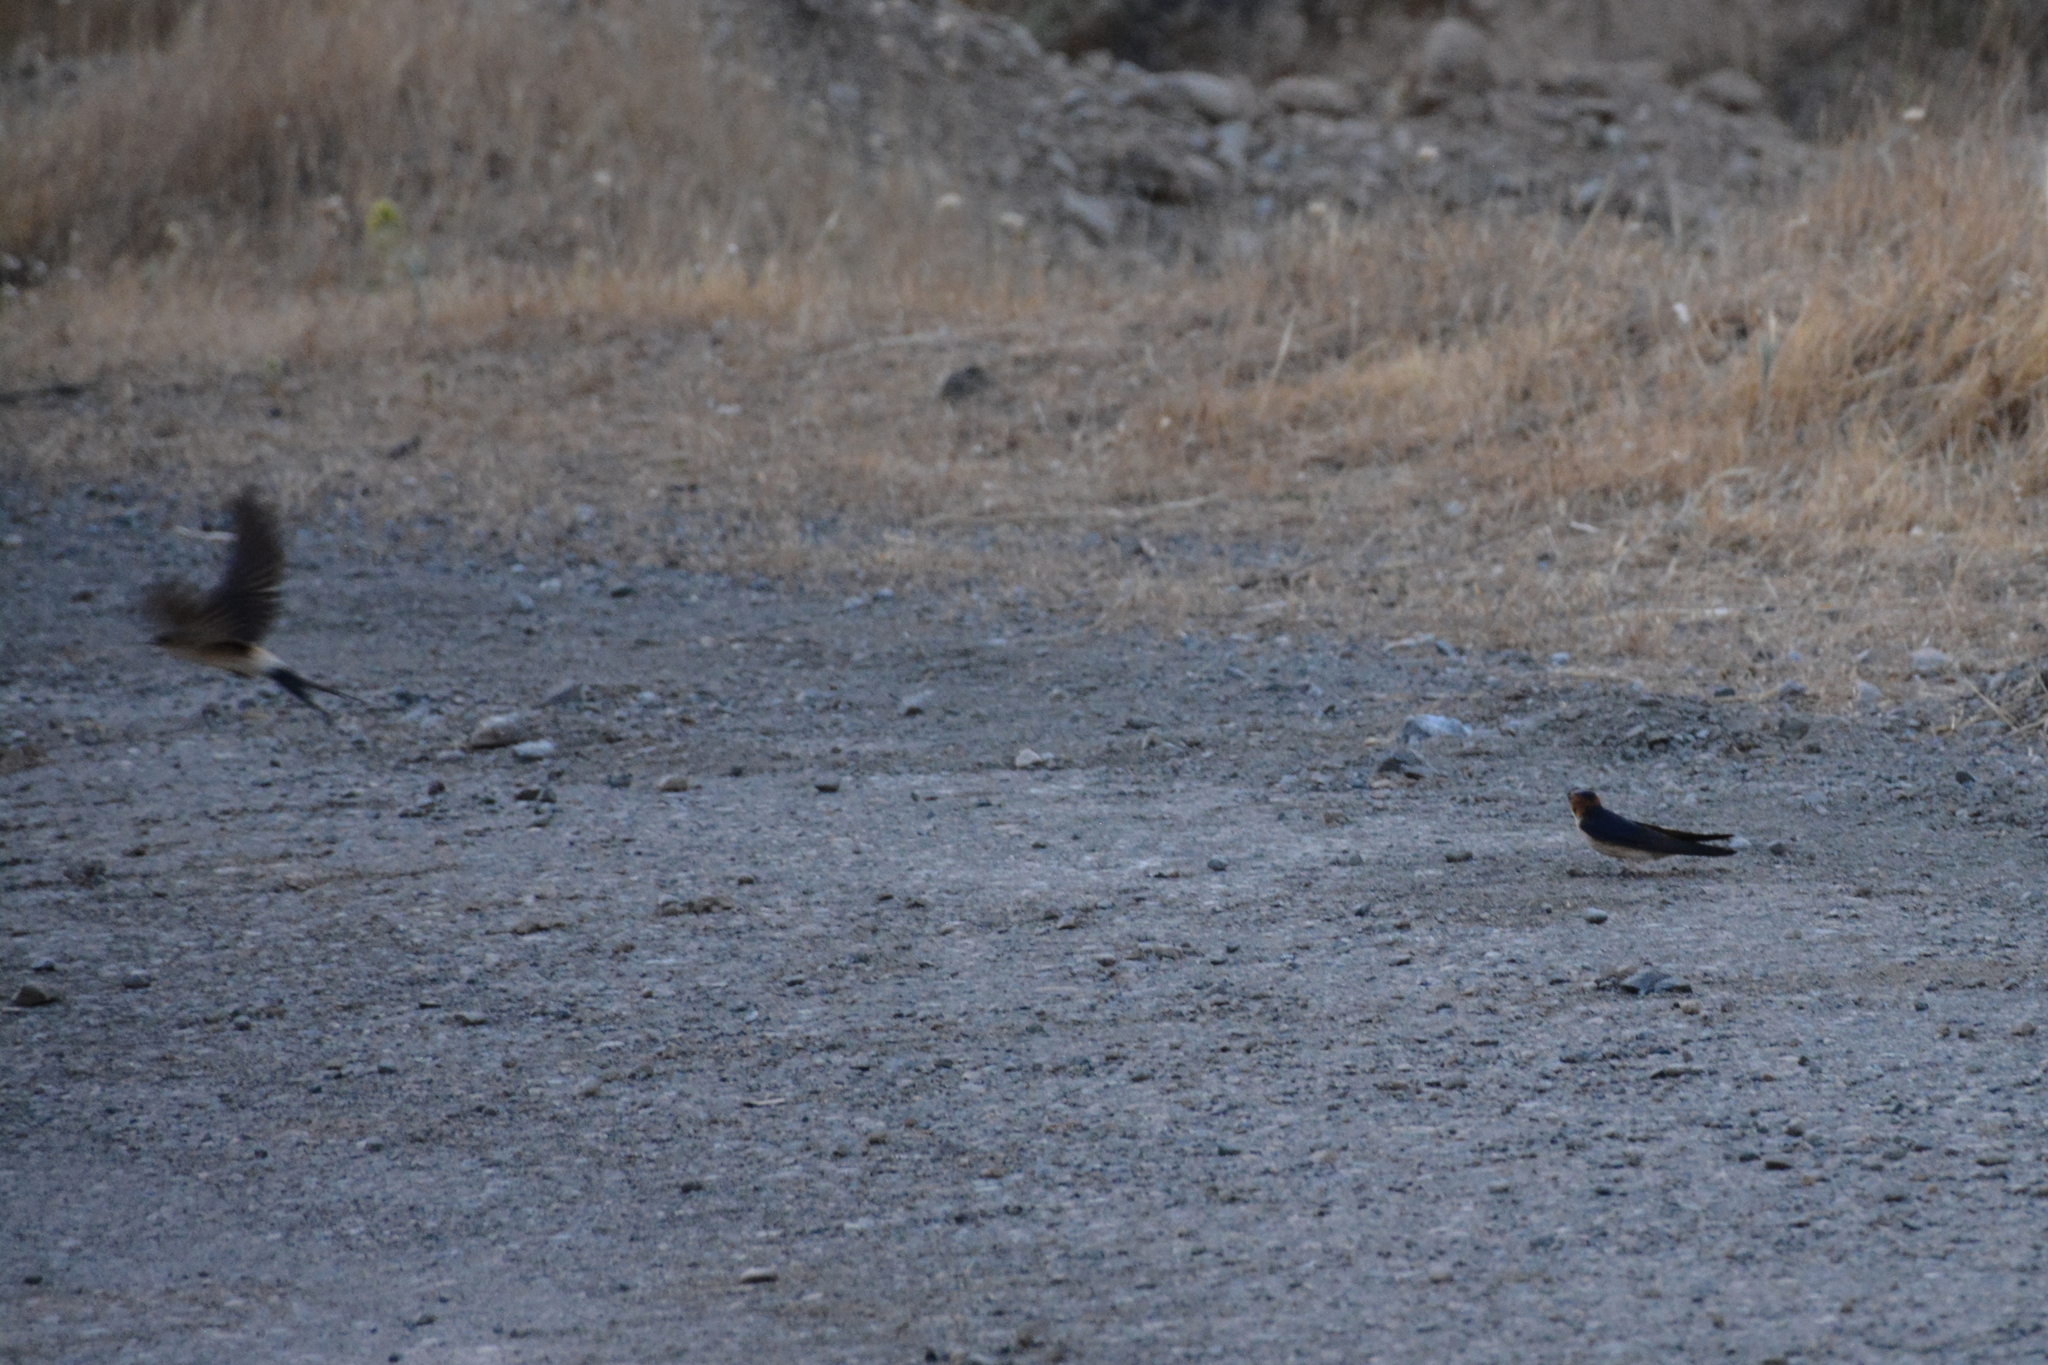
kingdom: Animalia
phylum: Chordata
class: Aves
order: Passeriformes
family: Hirundinidae
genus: Cecropis
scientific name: Cecropis daurica
